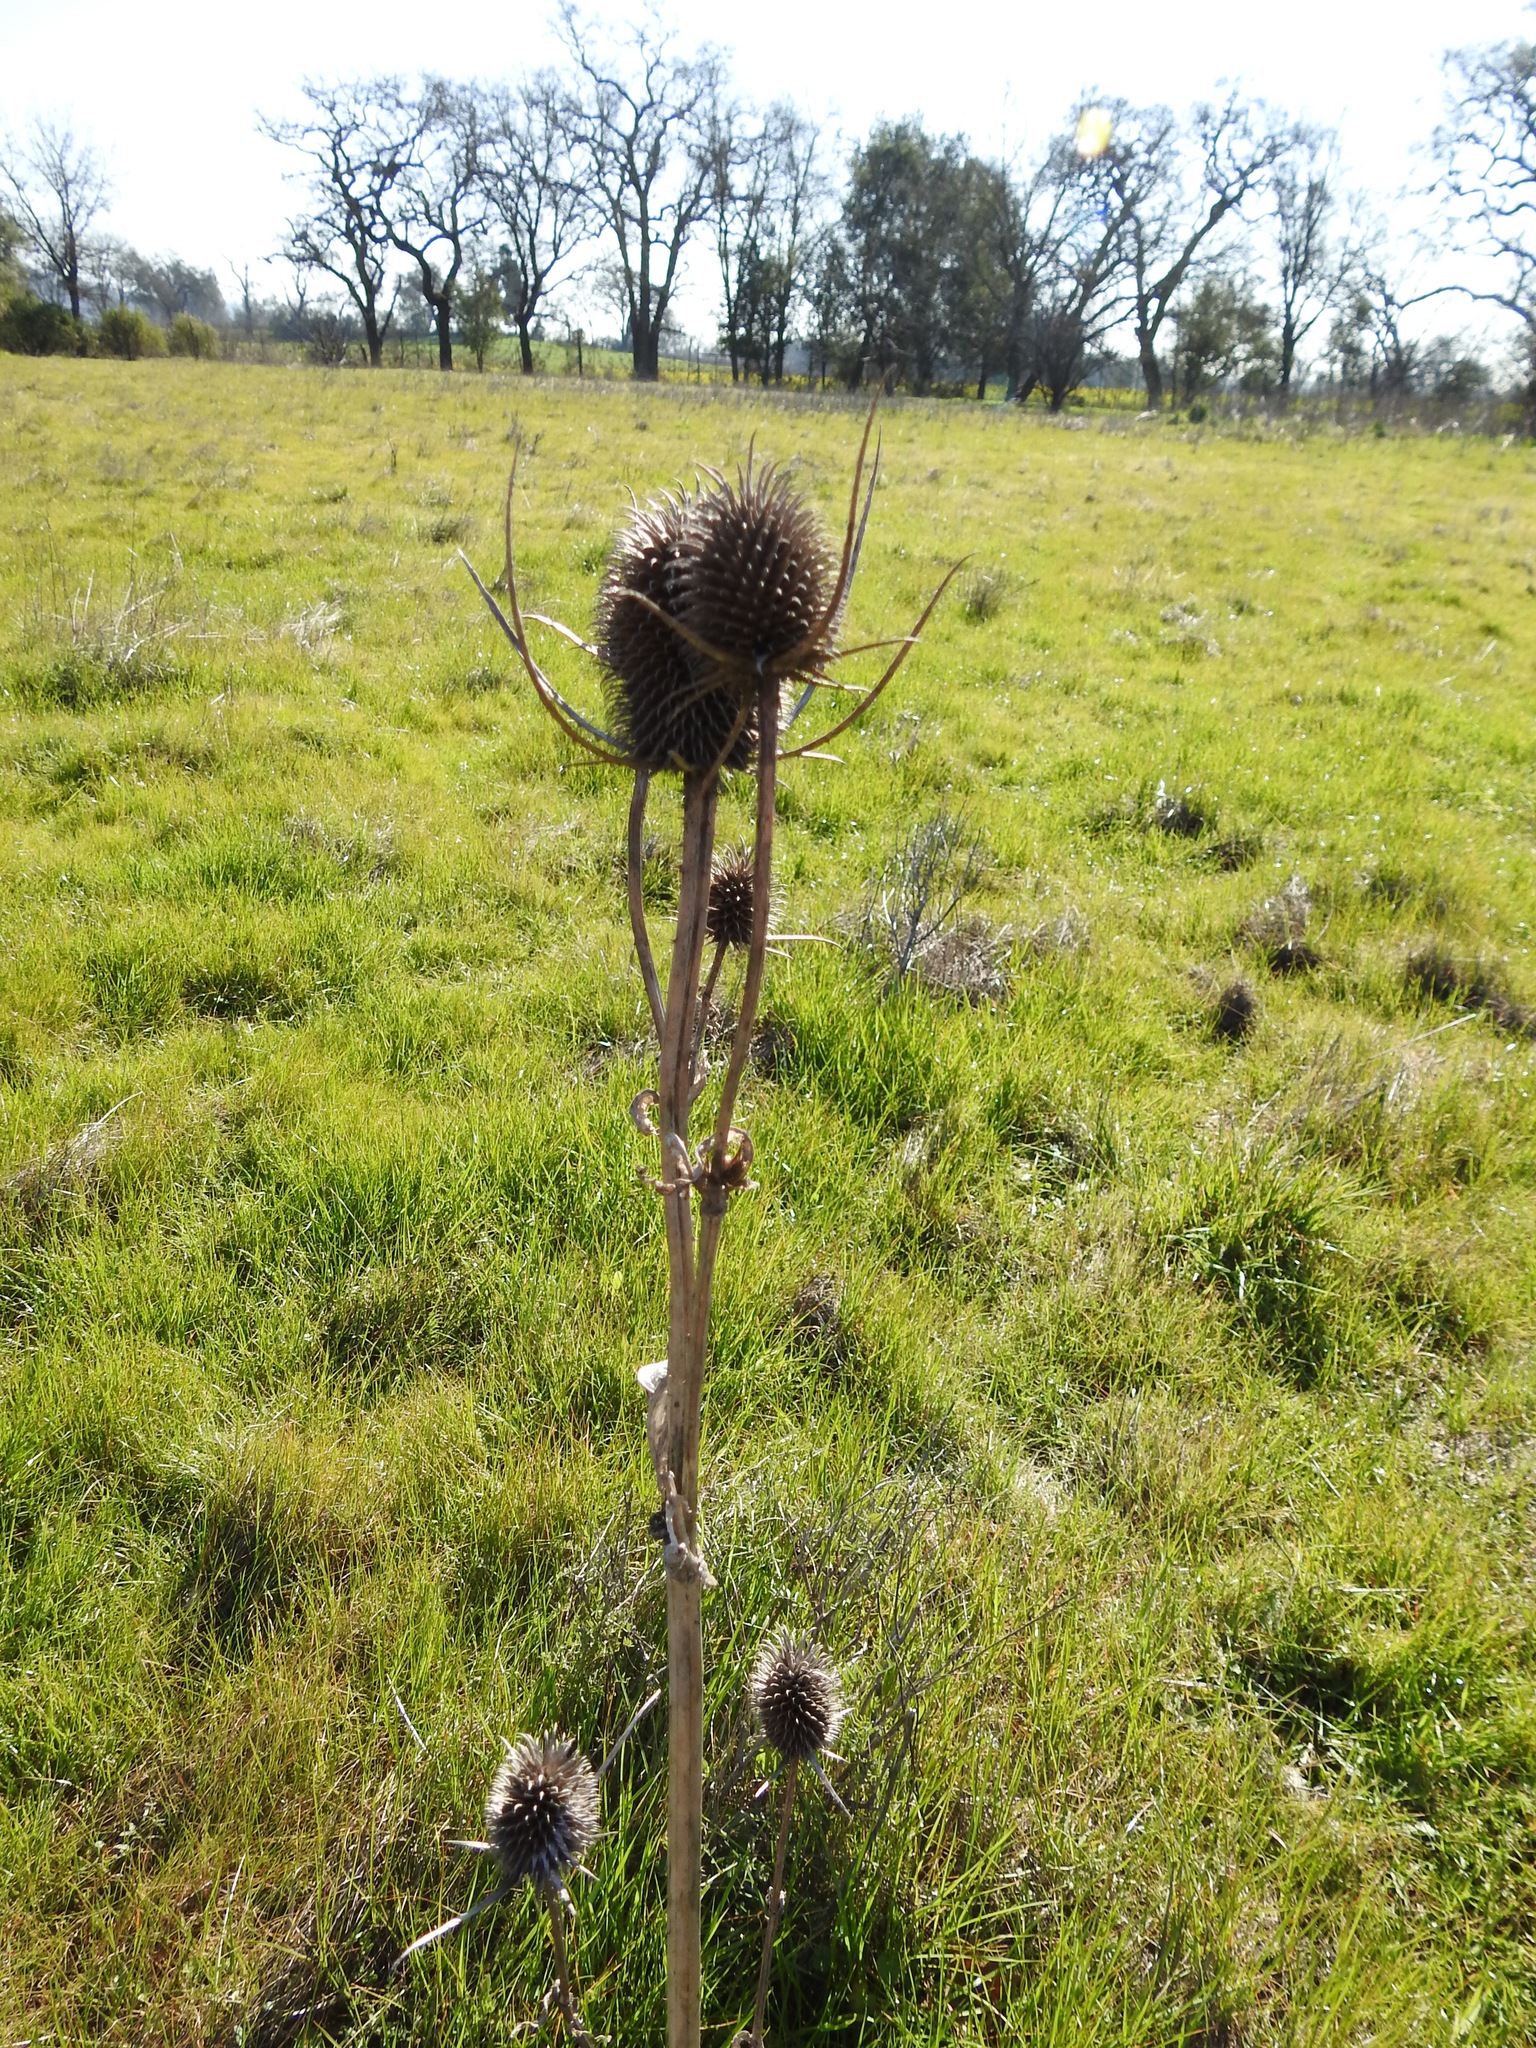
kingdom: Plantae
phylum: Tracheophyta
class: Magnoliopsida
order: Dipsacales
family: Caprifoliaceae
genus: Dipsacus
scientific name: Dipsacus sativus
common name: Fuller's teasel
